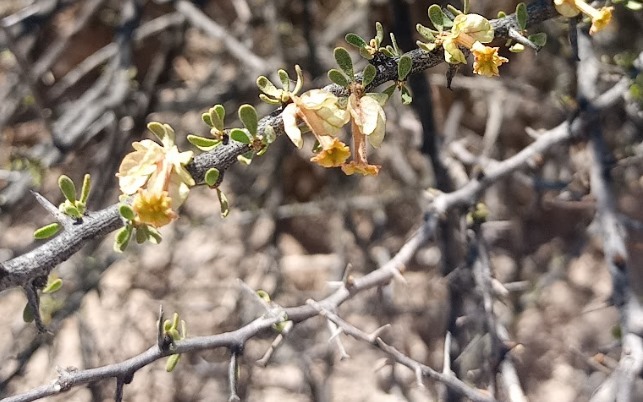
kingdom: Plantae
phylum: Tracheophyta
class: Magnoliopsida
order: Caryophyllales
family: Nyctaginaceae
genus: Bougainvillea
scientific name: Bougainvillea spinosa
